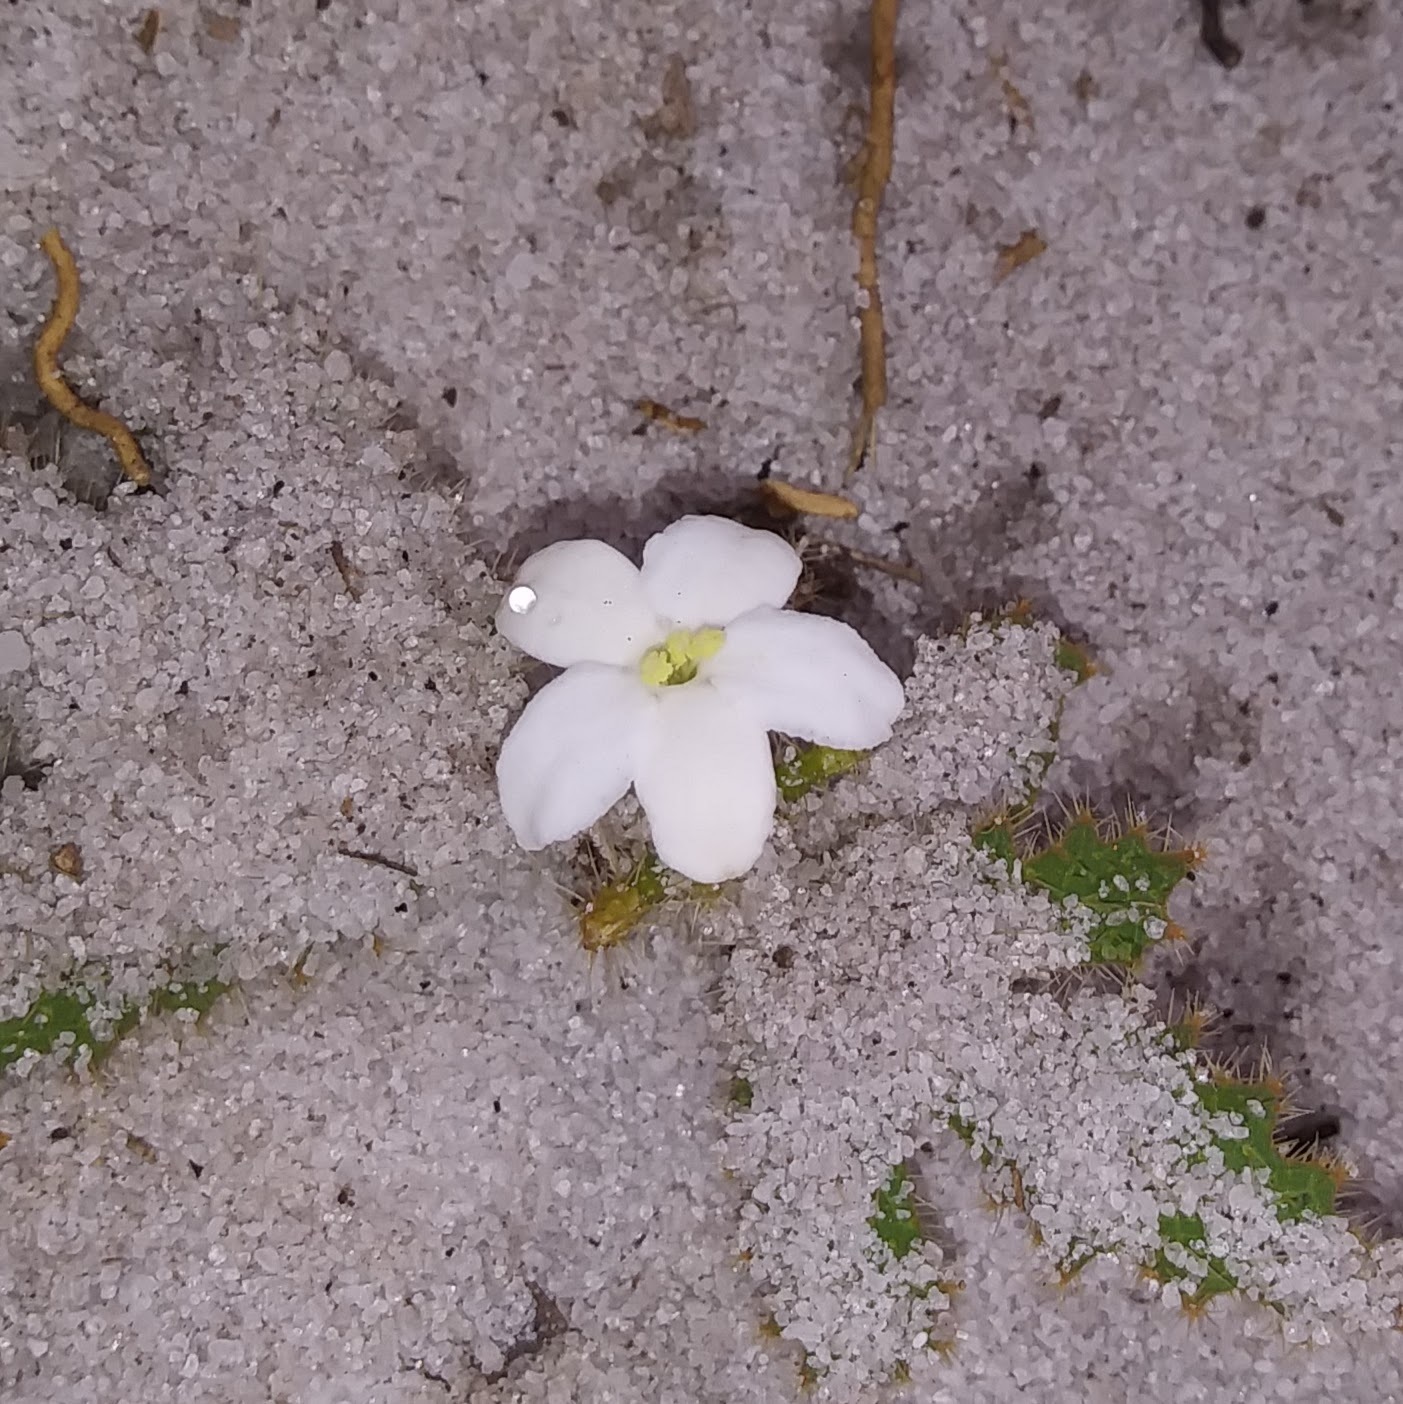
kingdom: Plantae
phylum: Tracheophyta
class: Magnoliopsida
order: Malpighiales
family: Euphorbiaceae
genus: Cnidoscolus
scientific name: Cnidoscolus stimulosus
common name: Bull-nettle
